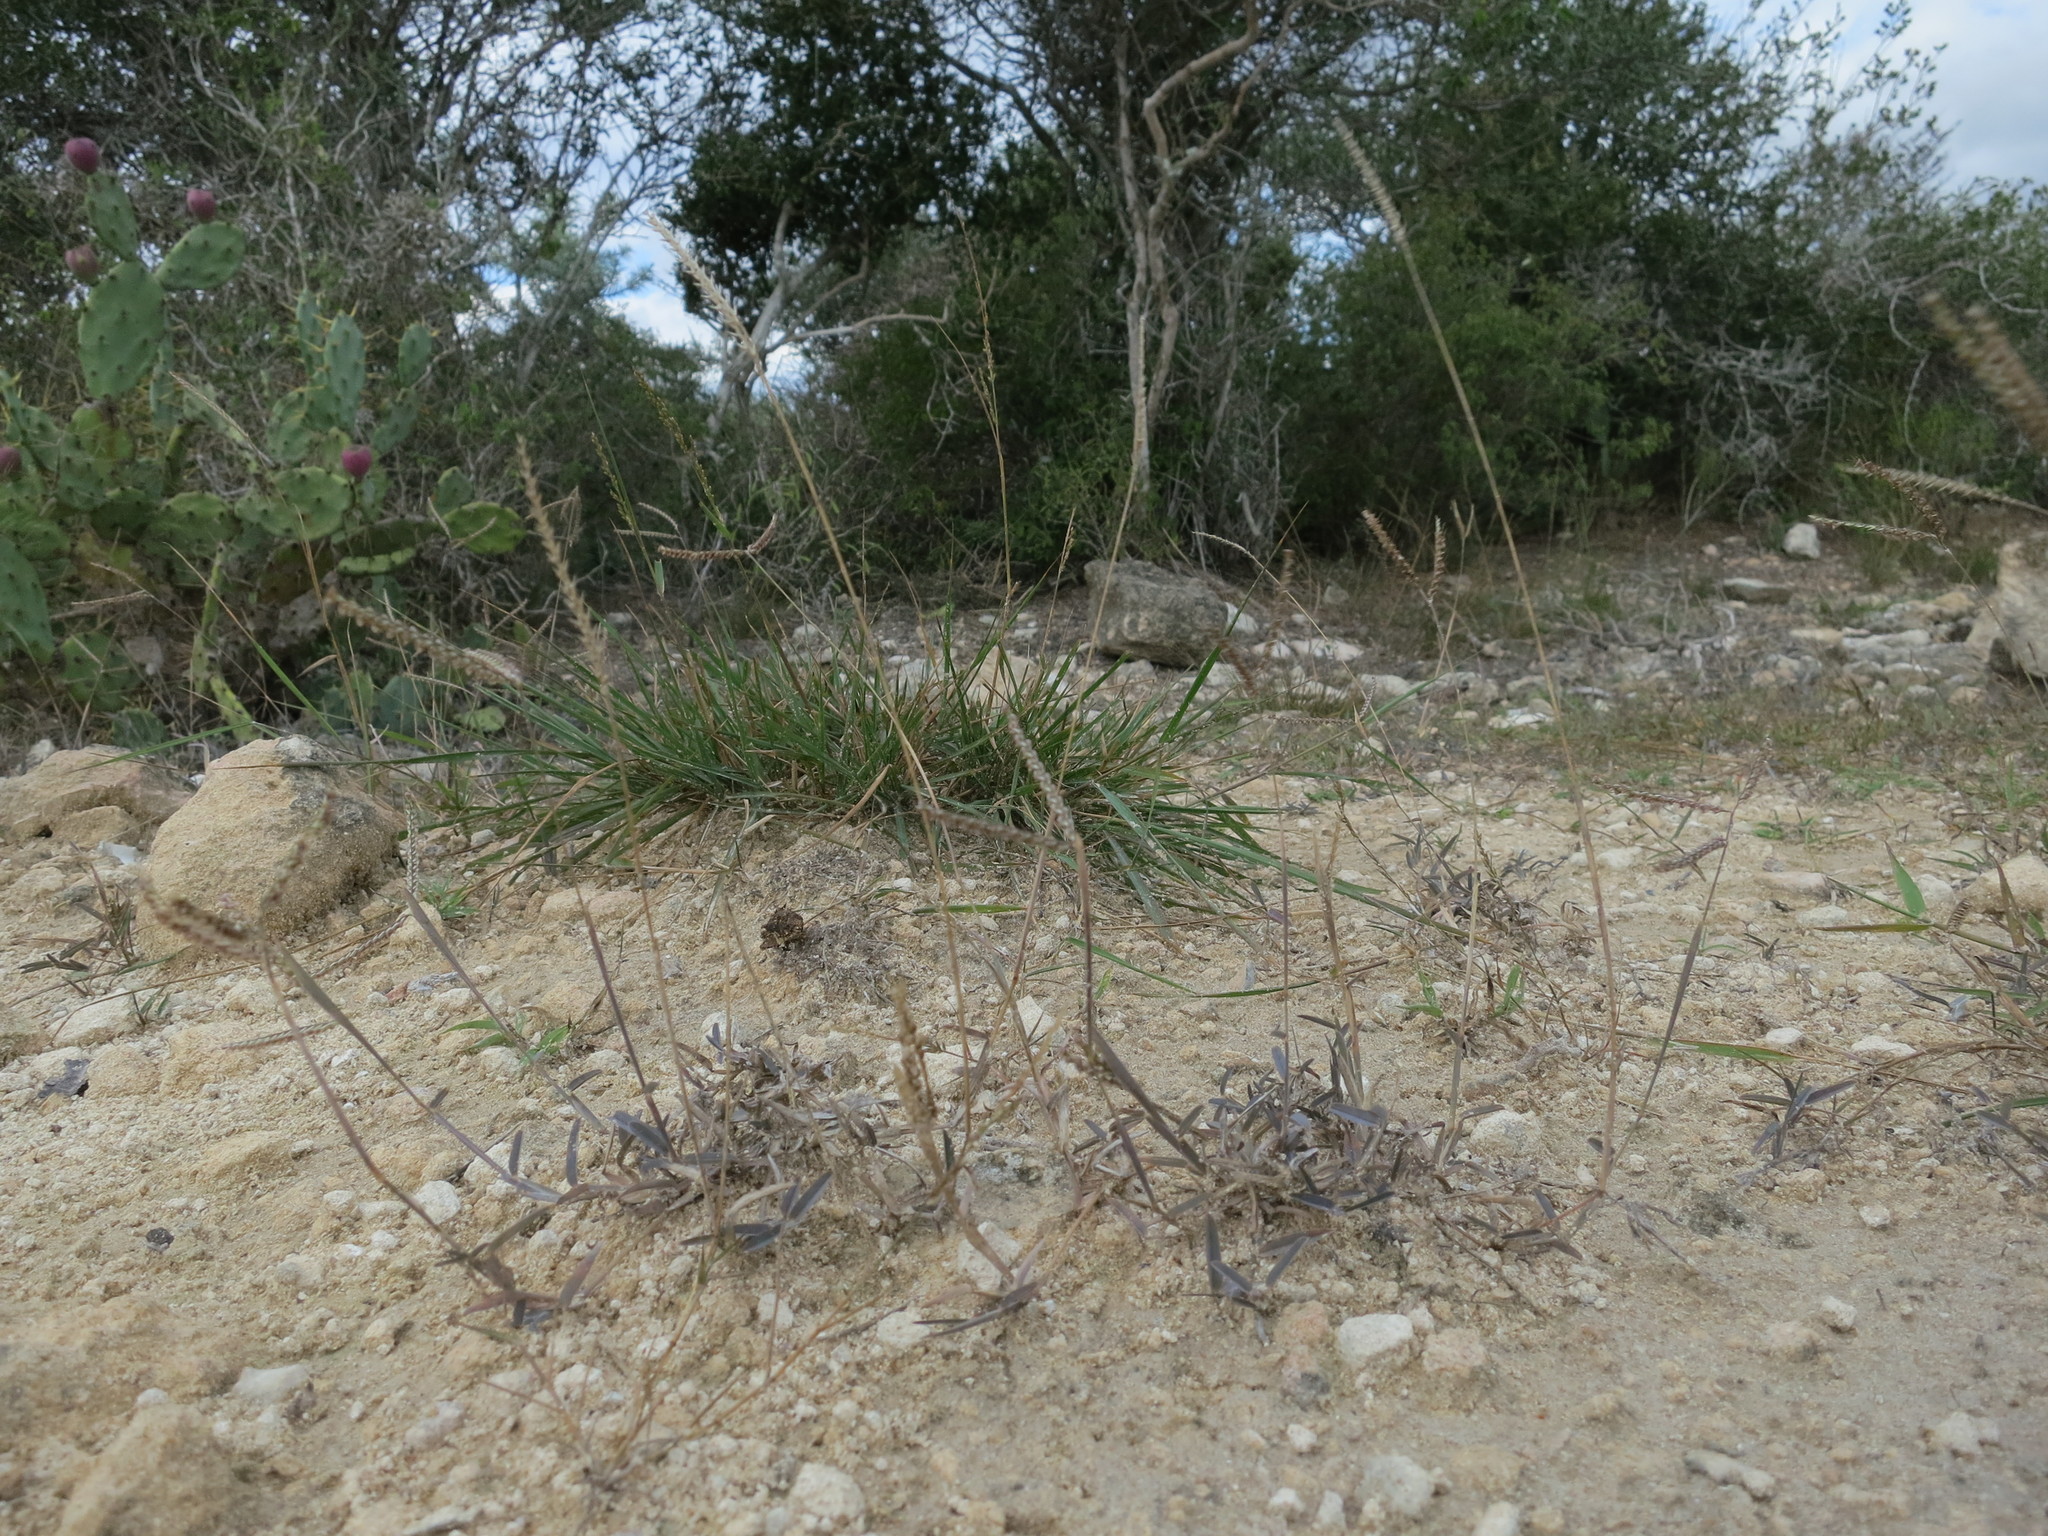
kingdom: Plantae
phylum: Tracheophyta
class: Liliopsida
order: Poales
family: Poaceae
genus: Chloris
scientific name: Chloris humbertiana
